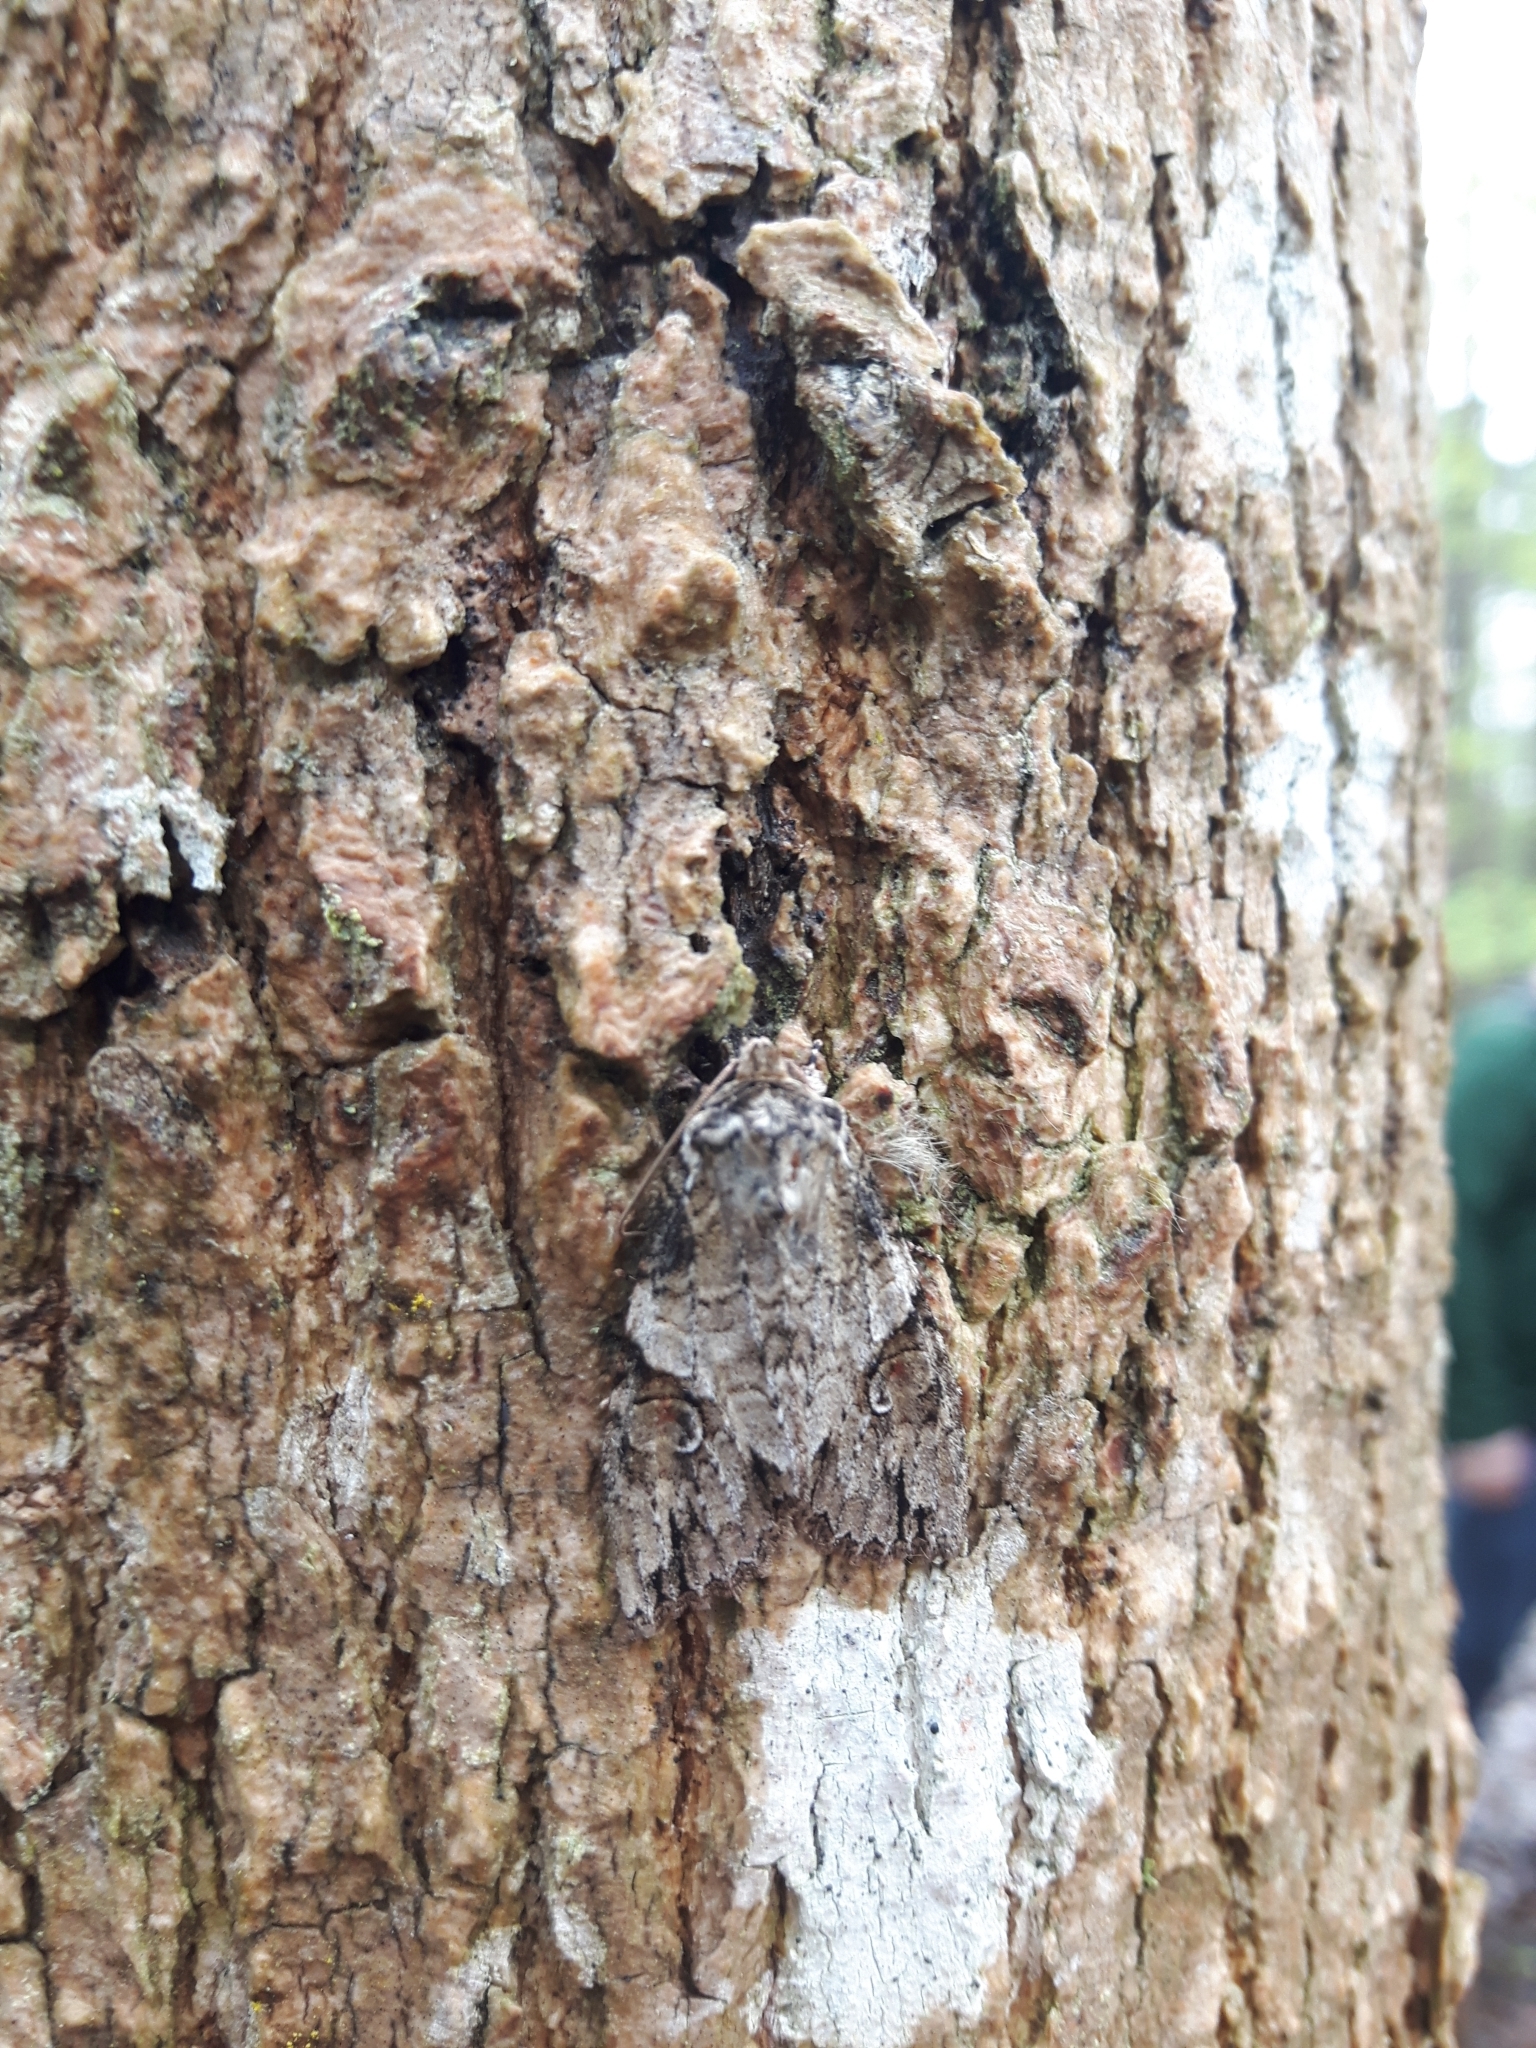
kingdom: Animalia
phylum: Arthropoda
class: Insecta
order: Lepidoptera
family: Noctuidae
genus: Achatia
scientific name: Achatia latex
